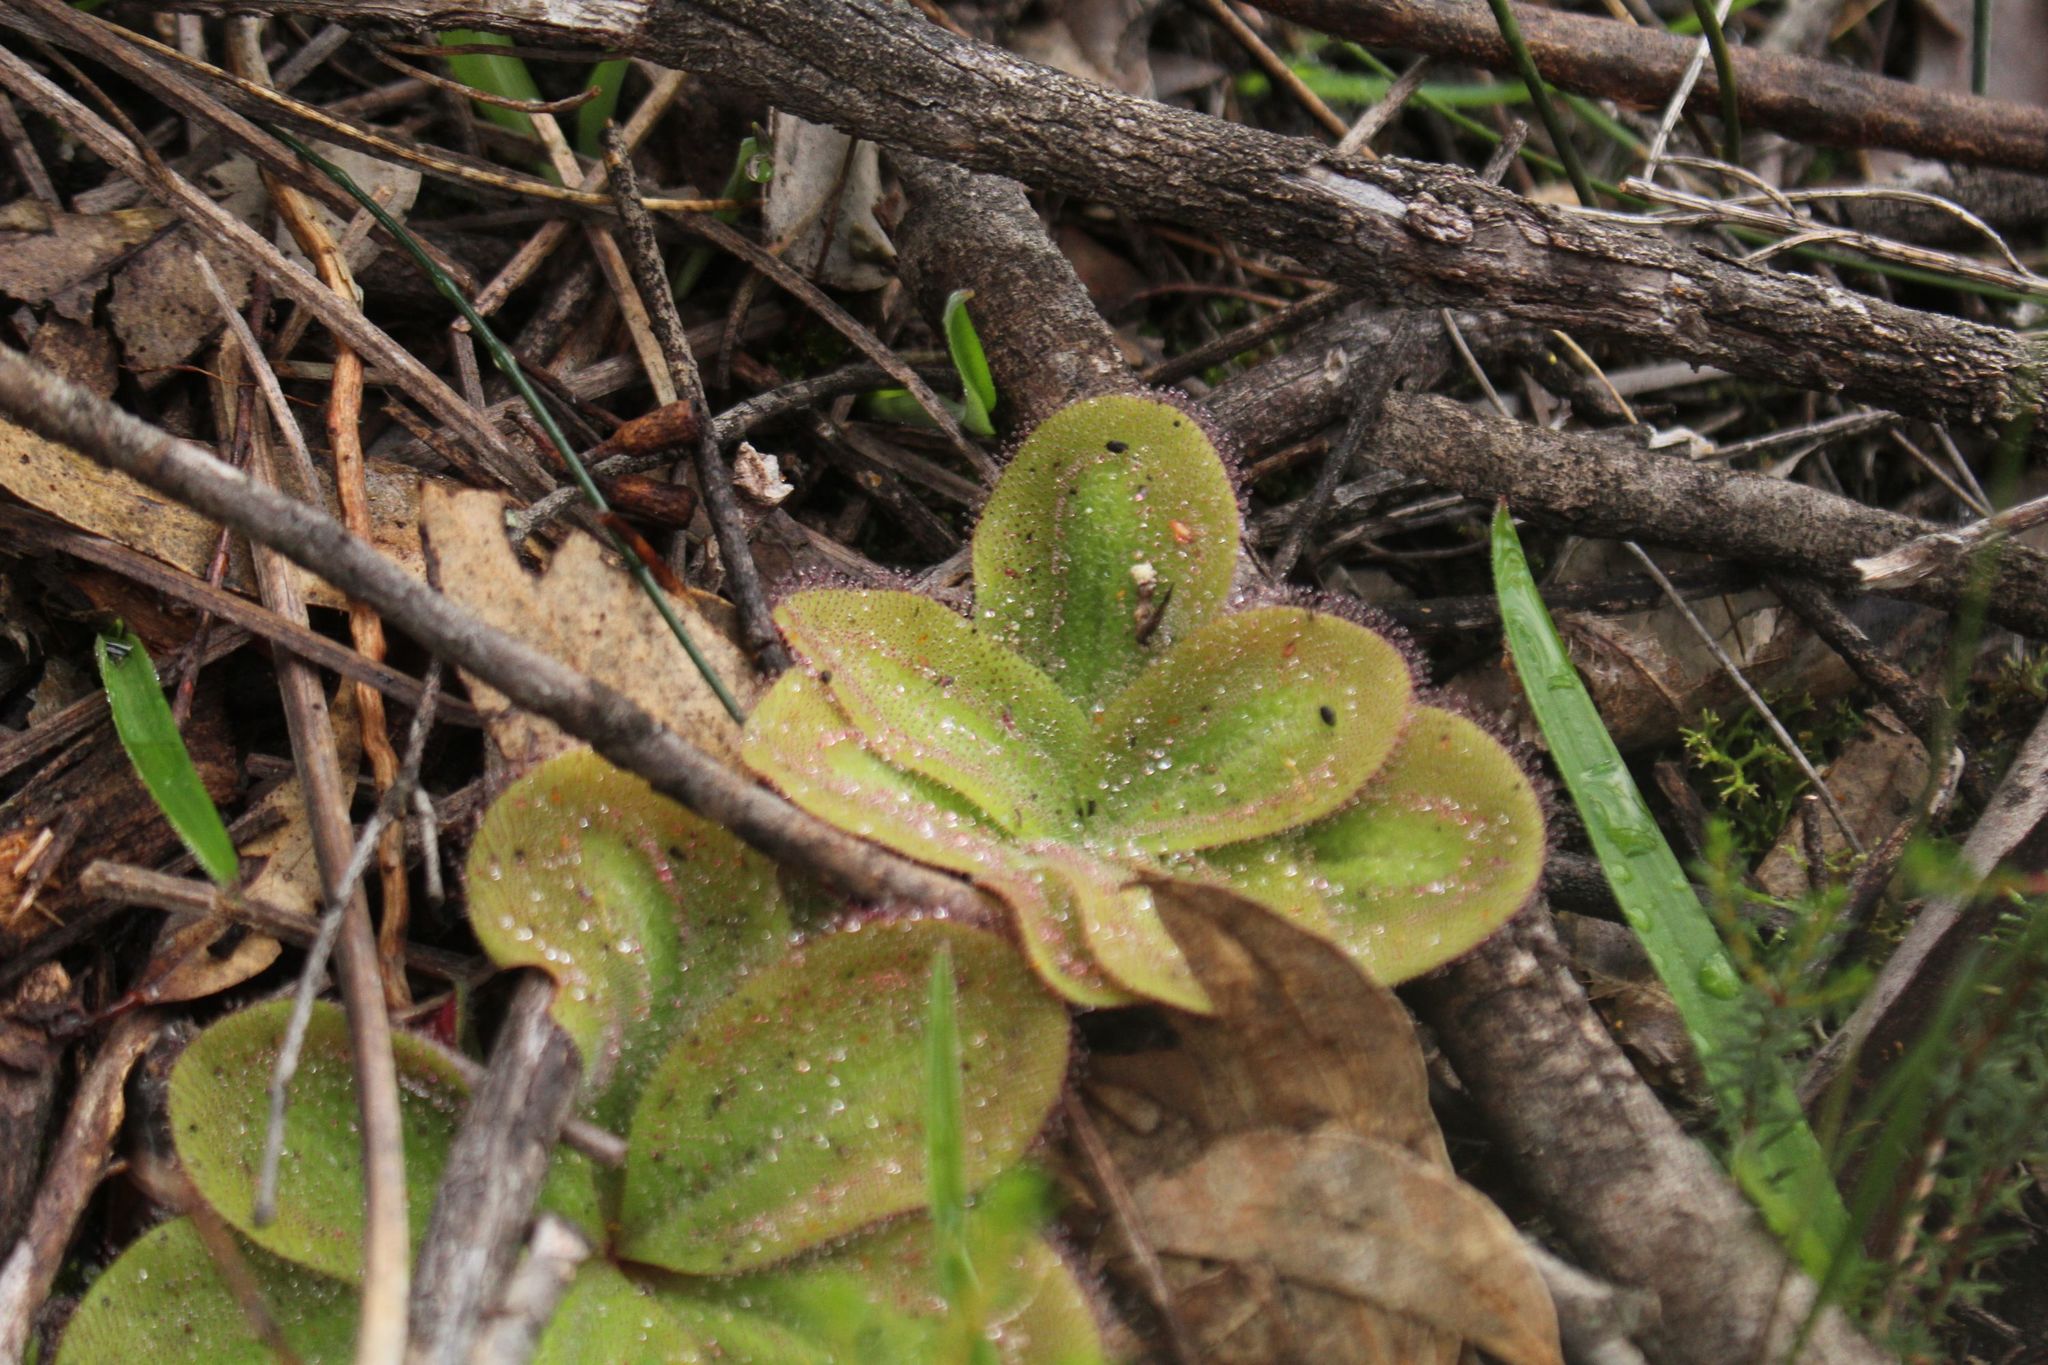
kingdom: Plantae
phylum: Tracheophyta
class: Magnoliopsida
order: Caryophyllales
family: Droseraceae
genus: Drosera
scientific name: Drosera erythrorhiza
